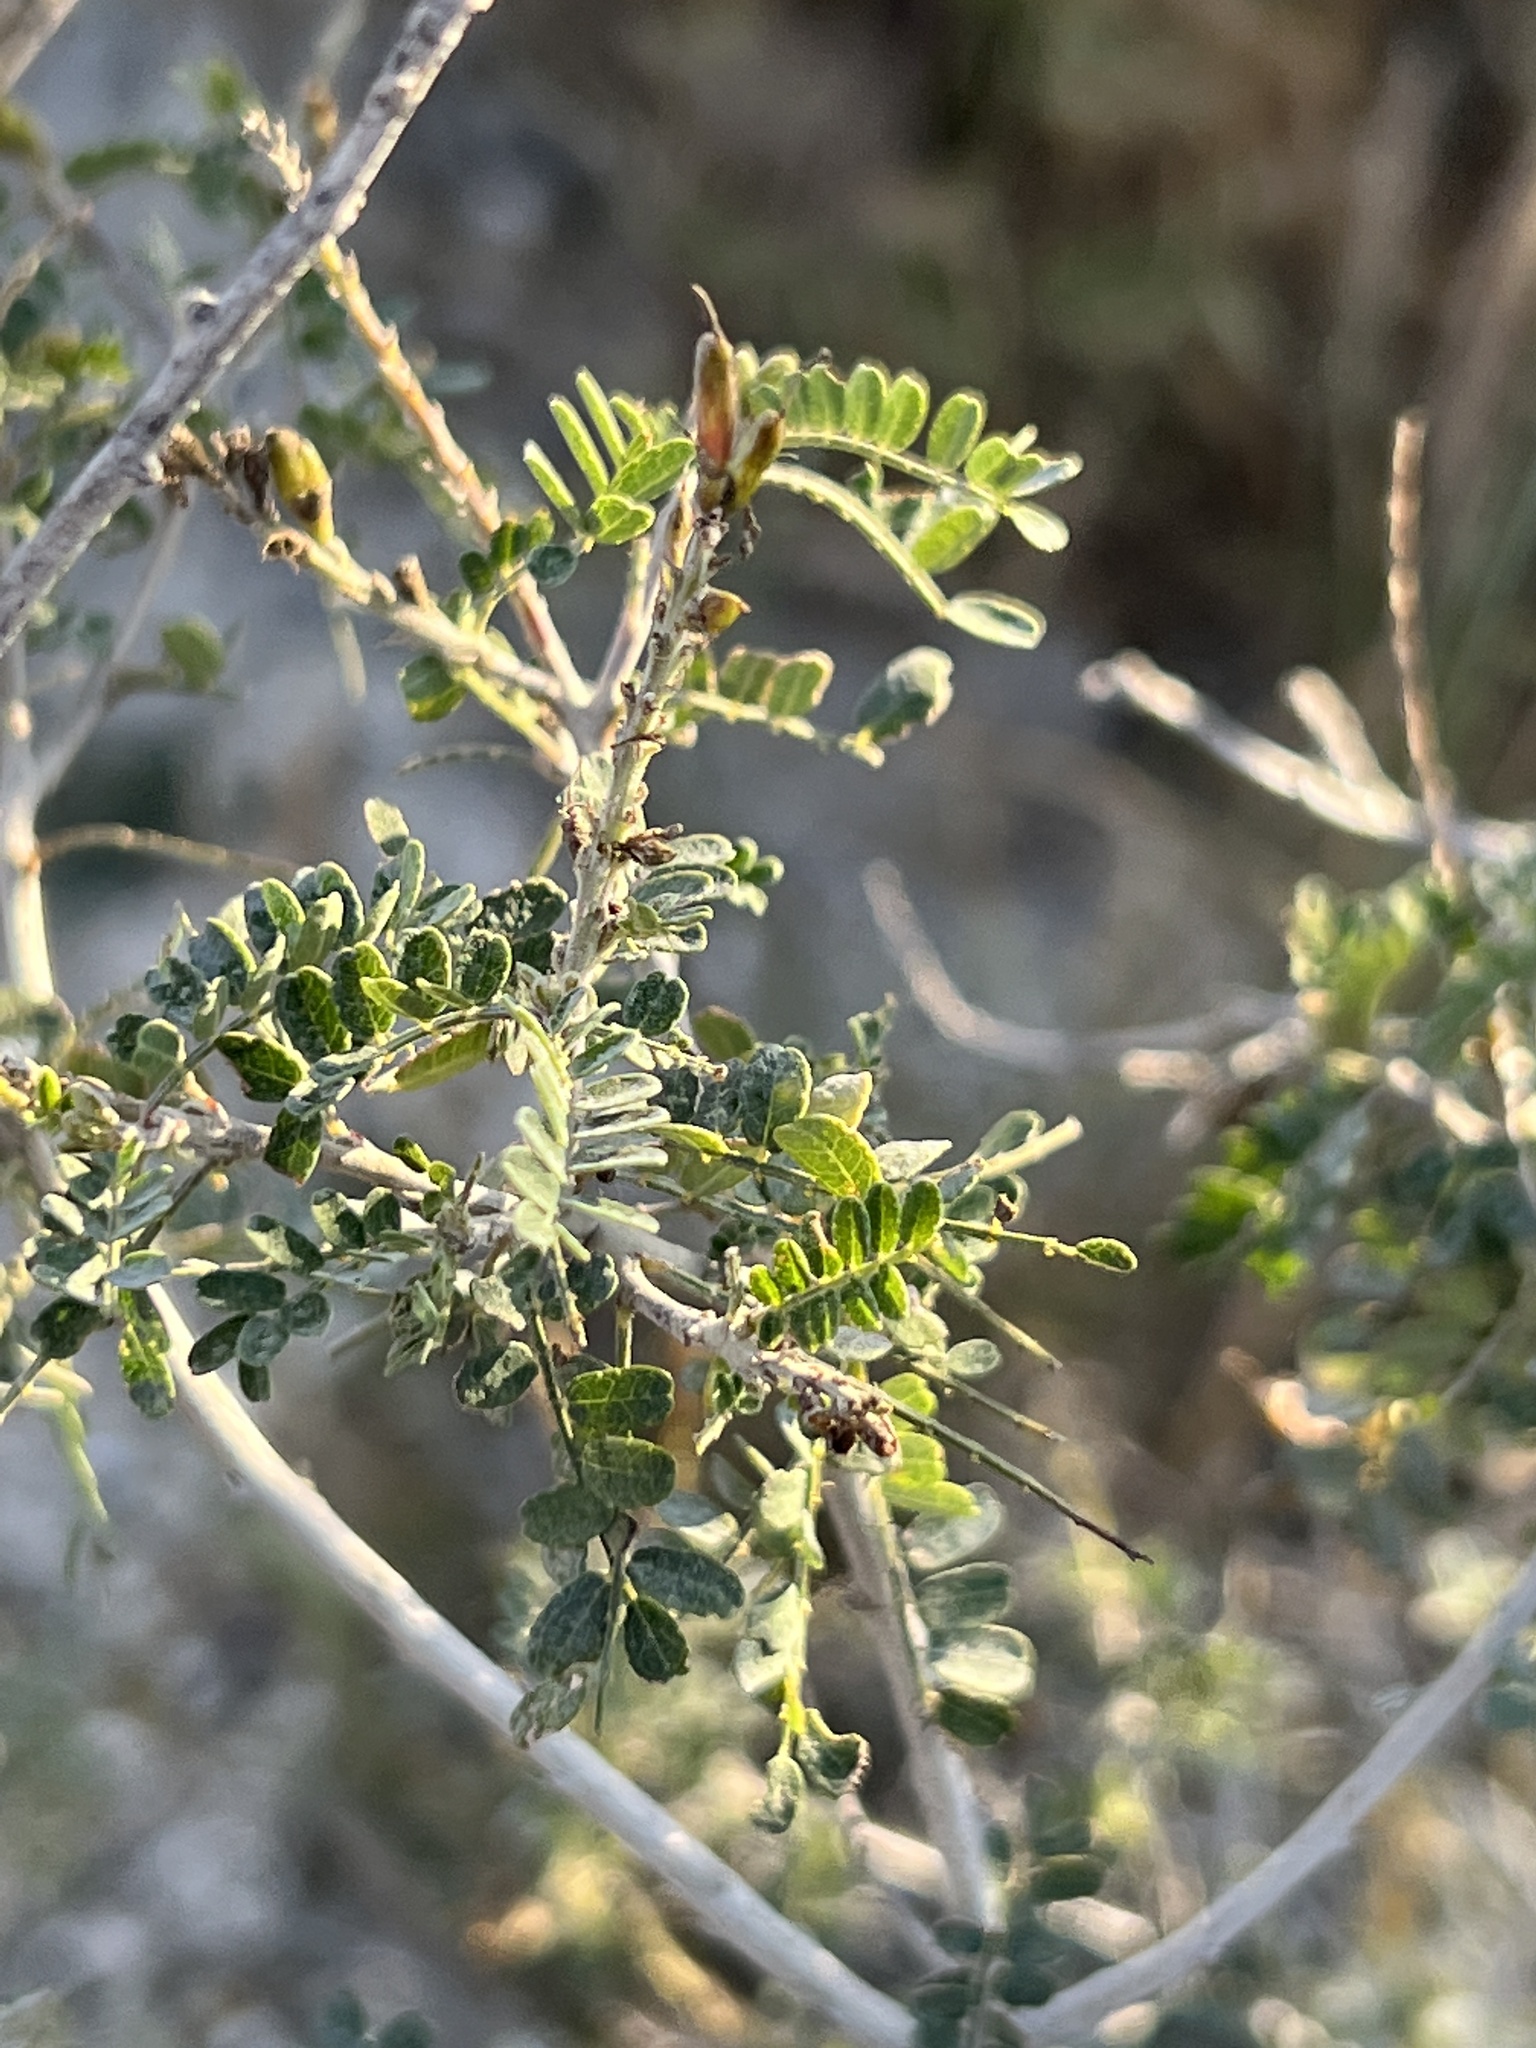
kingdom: Plantae
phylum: Tracheophyta
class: Magnoliopsida
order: Fabales
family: Fabaceae
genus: Eysenhardtia
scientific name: Eysenhardtia texana
